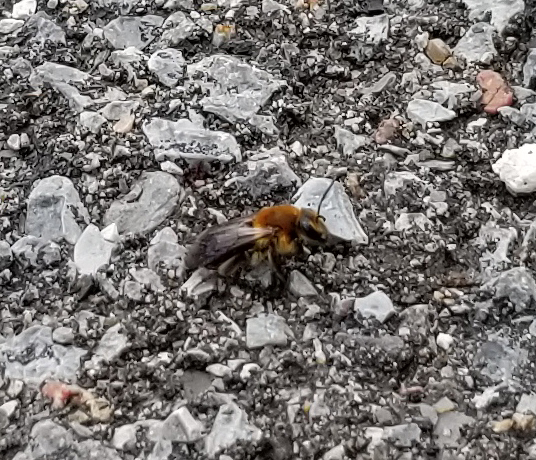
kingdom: Animalia
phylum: Arthropoda
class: Insecta
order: Hymenoptera
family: Andrenidae
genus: Andrena
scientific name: Andrena dunningi
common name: Dunning's miner
